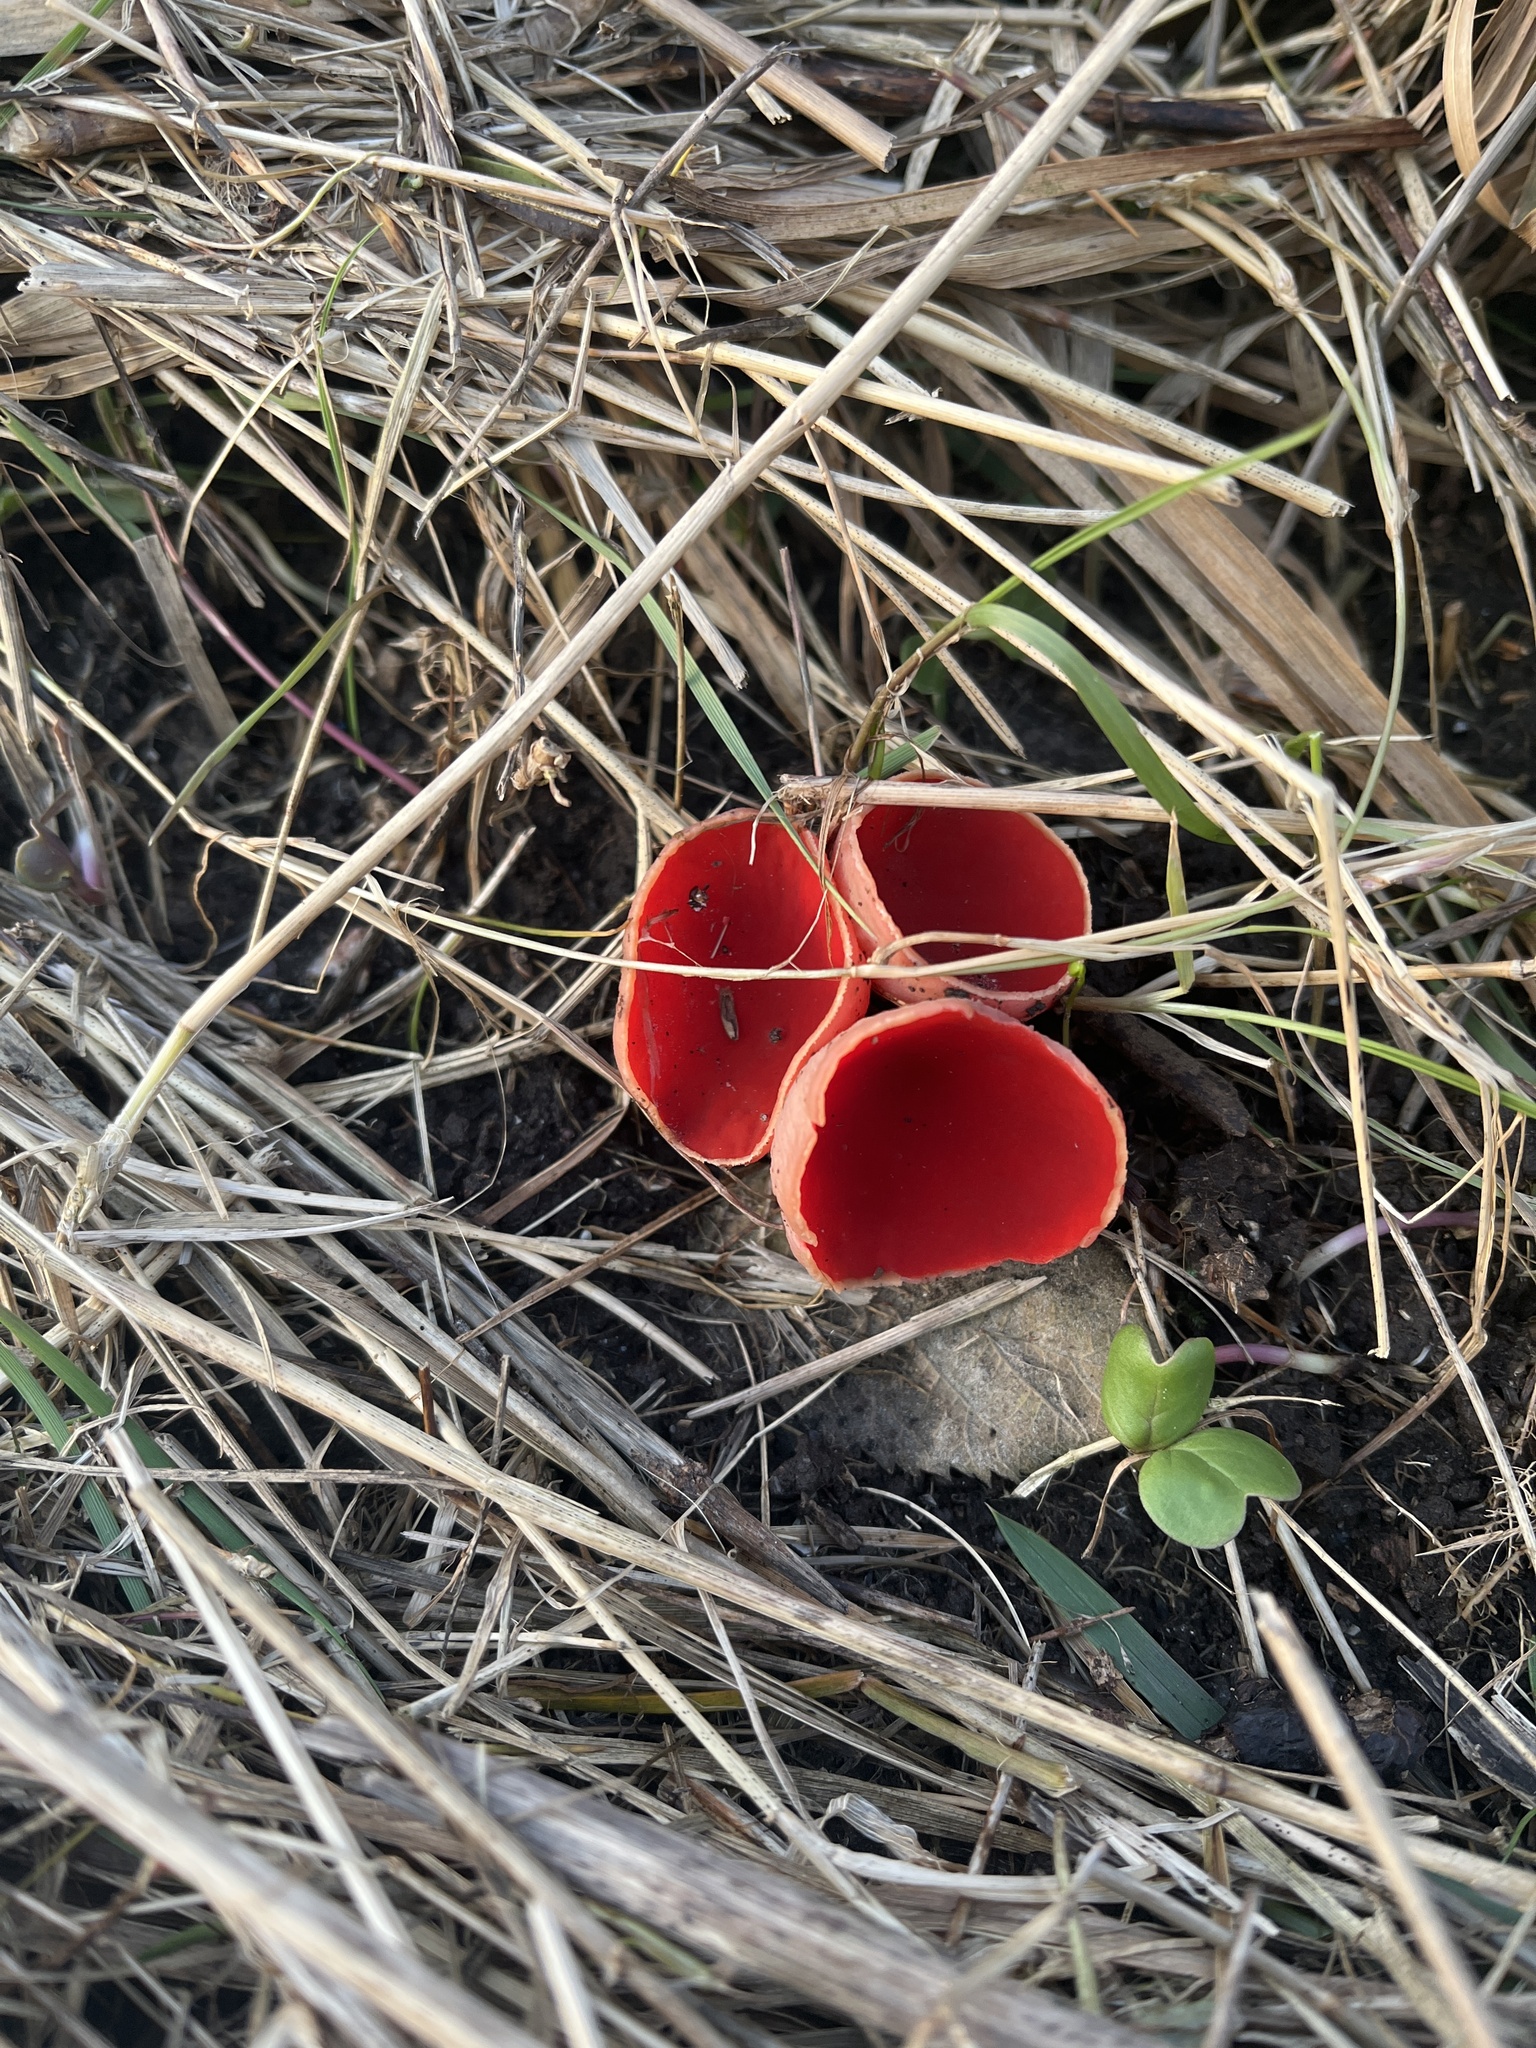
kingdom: Fungi
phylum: Ascomycota
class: Pezizomycetes
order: Pezizales
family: Sarcoscyphaceae
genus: Sarcoscypha
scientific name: Sarcoscypha
